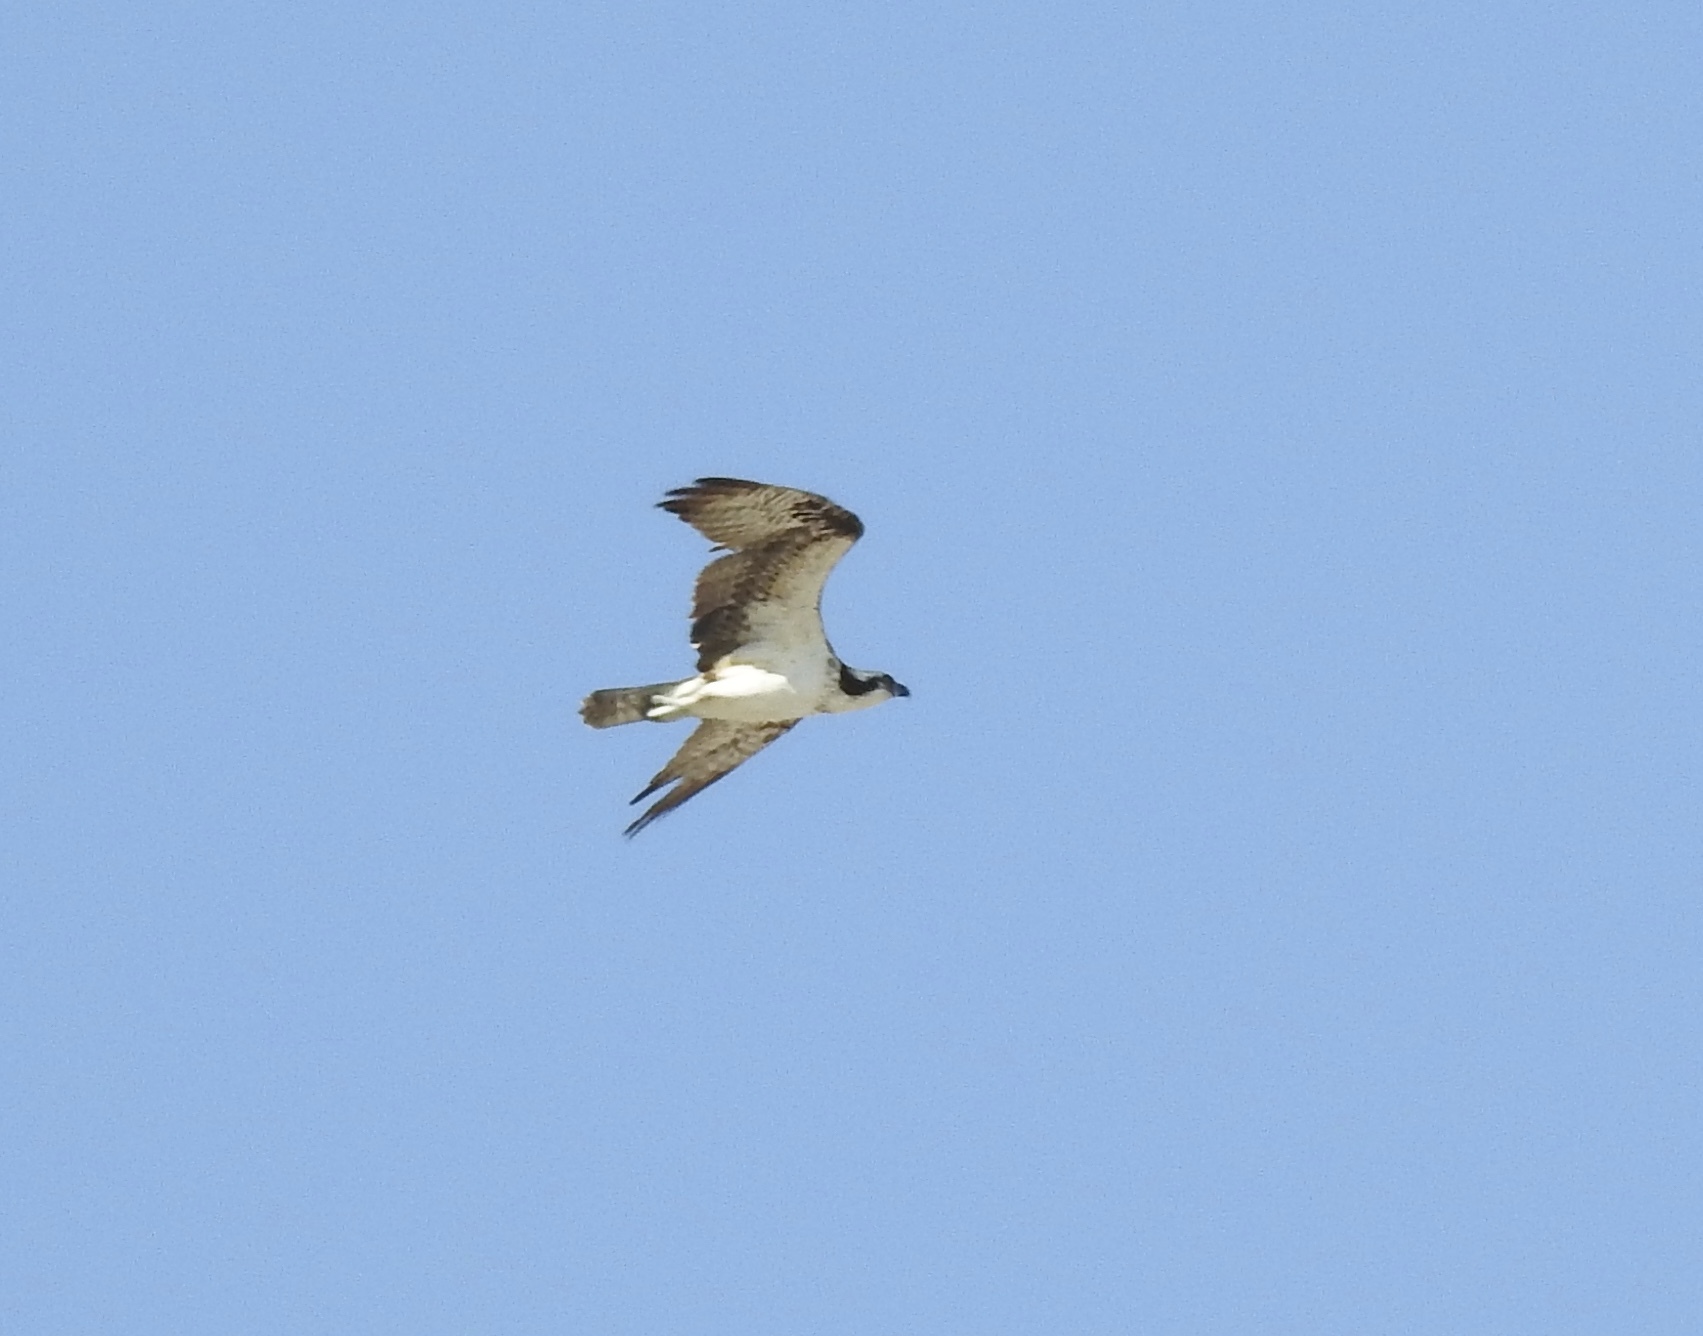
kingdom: Animalia
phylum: Chordata
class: Aves
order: Accipitriformes
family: Pandionidae
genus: Pandion
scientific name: Pandion haliaetus
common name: Osprey
